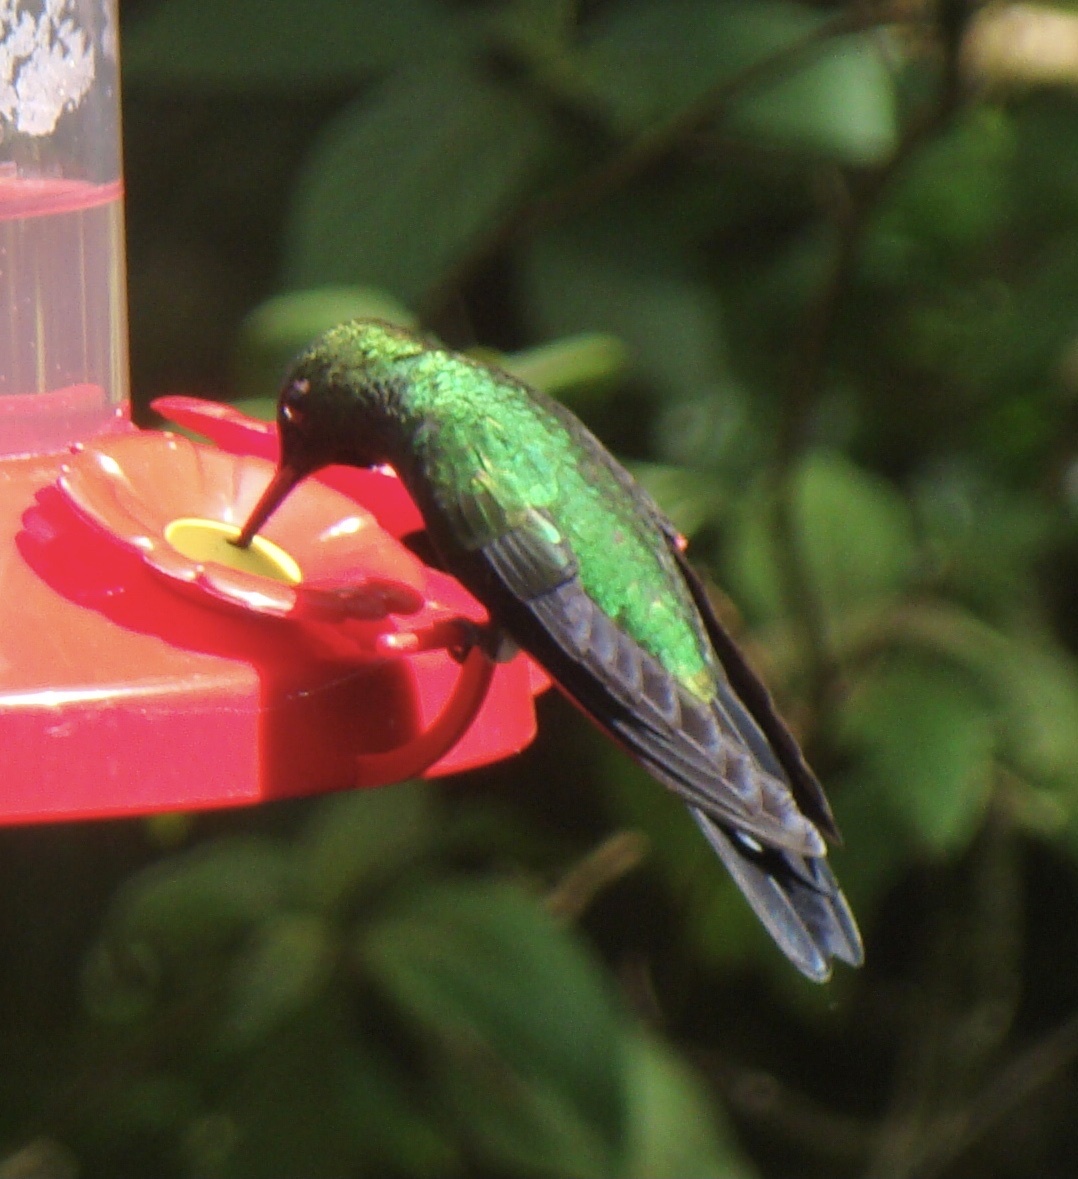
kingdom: Animalia
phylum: Chordata
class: Aves
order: Apodiformes
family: Trochilidae
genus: Heliodoxa
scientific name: Heliodoxa jacula
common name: Green-crowned brilliant
